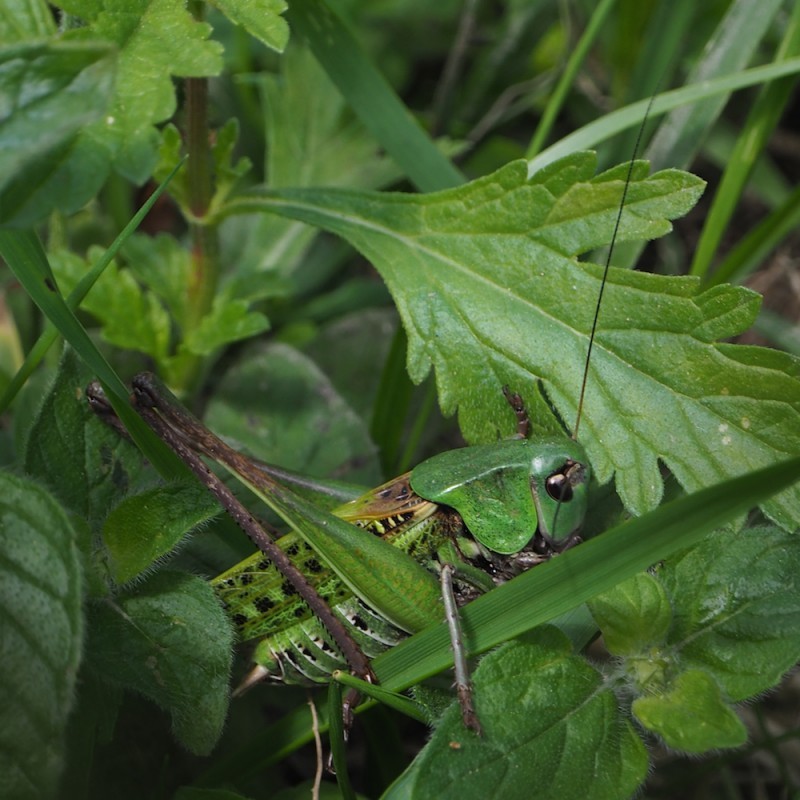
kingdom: Animalia
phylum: Arthropoda
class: Insecta
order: Orthoptera
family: Tettigoniidae
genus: Decticus
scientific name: Decticus verrucivorus
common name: Wart-biter
